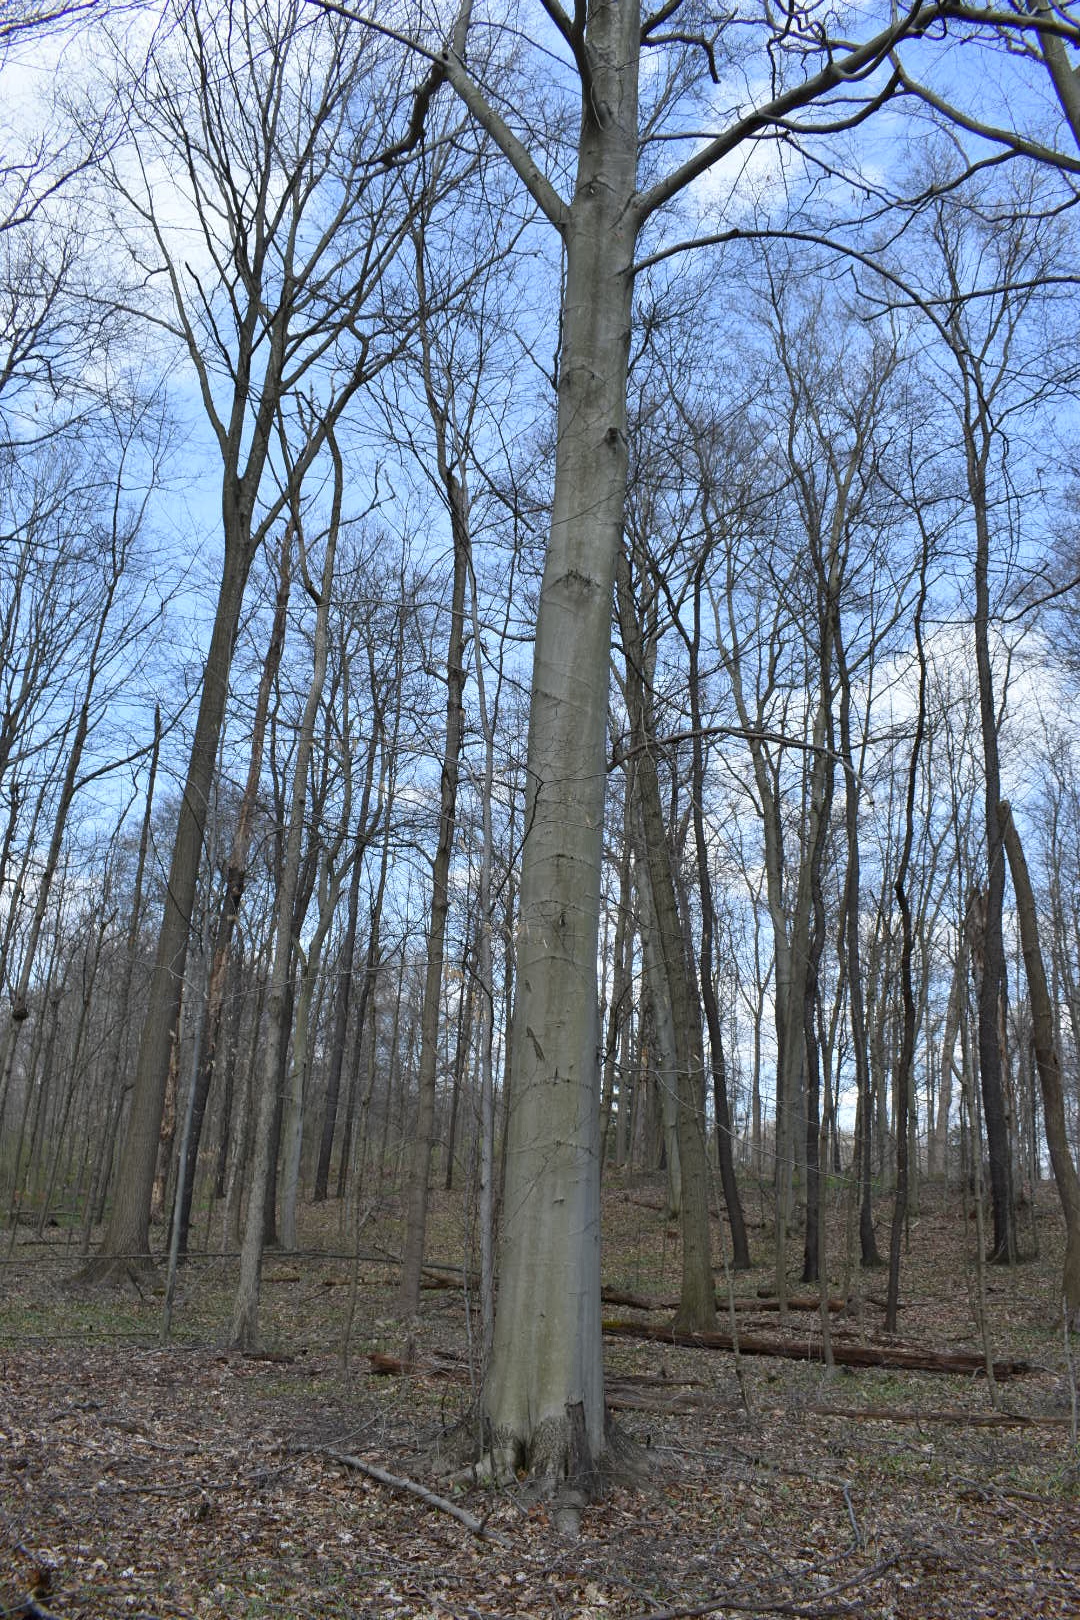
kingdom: Plantae
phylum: Tracheophyta
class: Magnoliopsida
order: Fagales
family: Fagaceae
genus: Fagus
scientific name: Fagus grandifolia
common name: American beech
